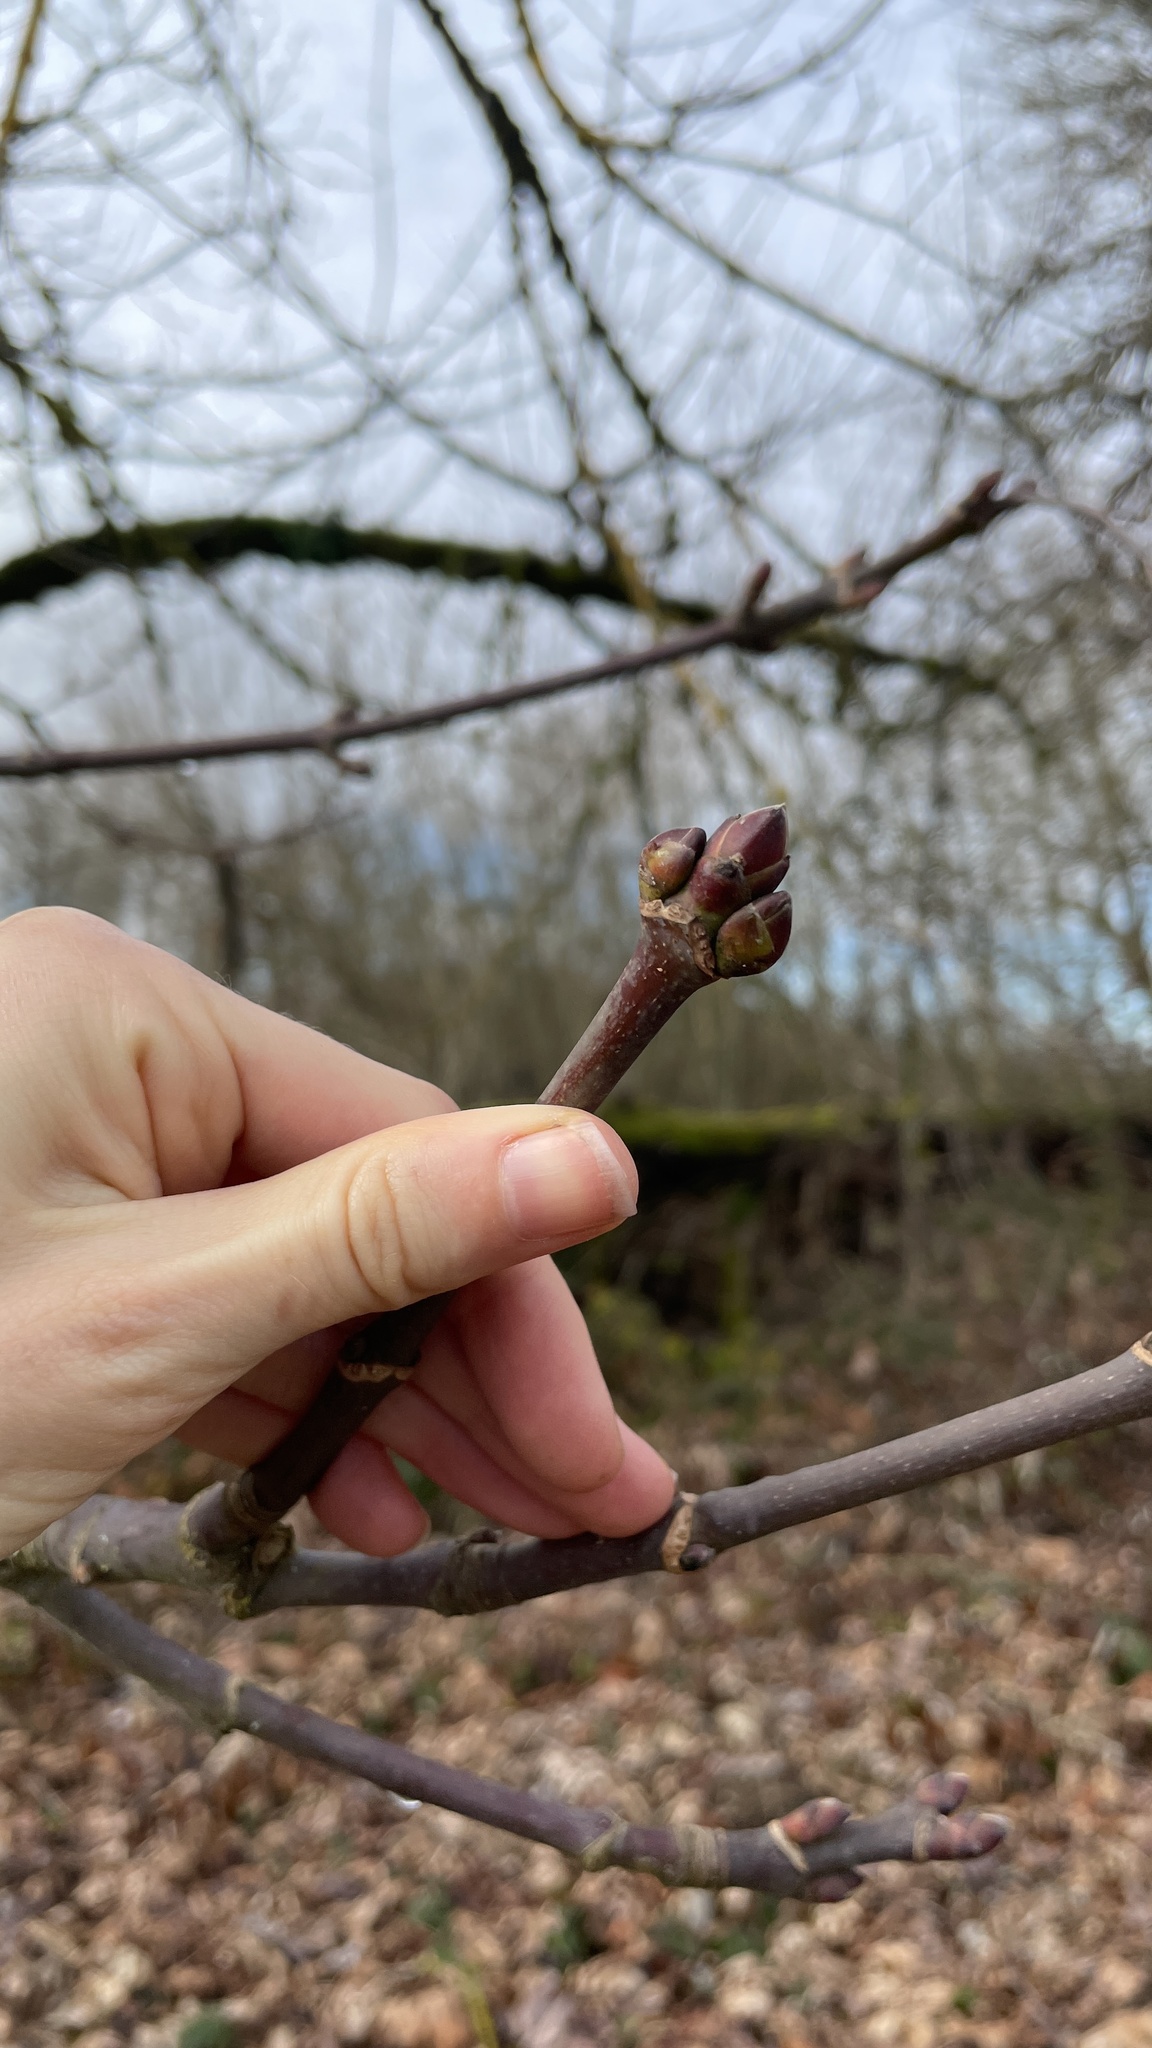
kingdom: Plantae
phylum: Tracheophyta
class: Magnoliopsida
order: Sapindales
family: Sapindaceae
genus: Acer
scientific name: Acer macrophyllum
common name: Oregon maple
